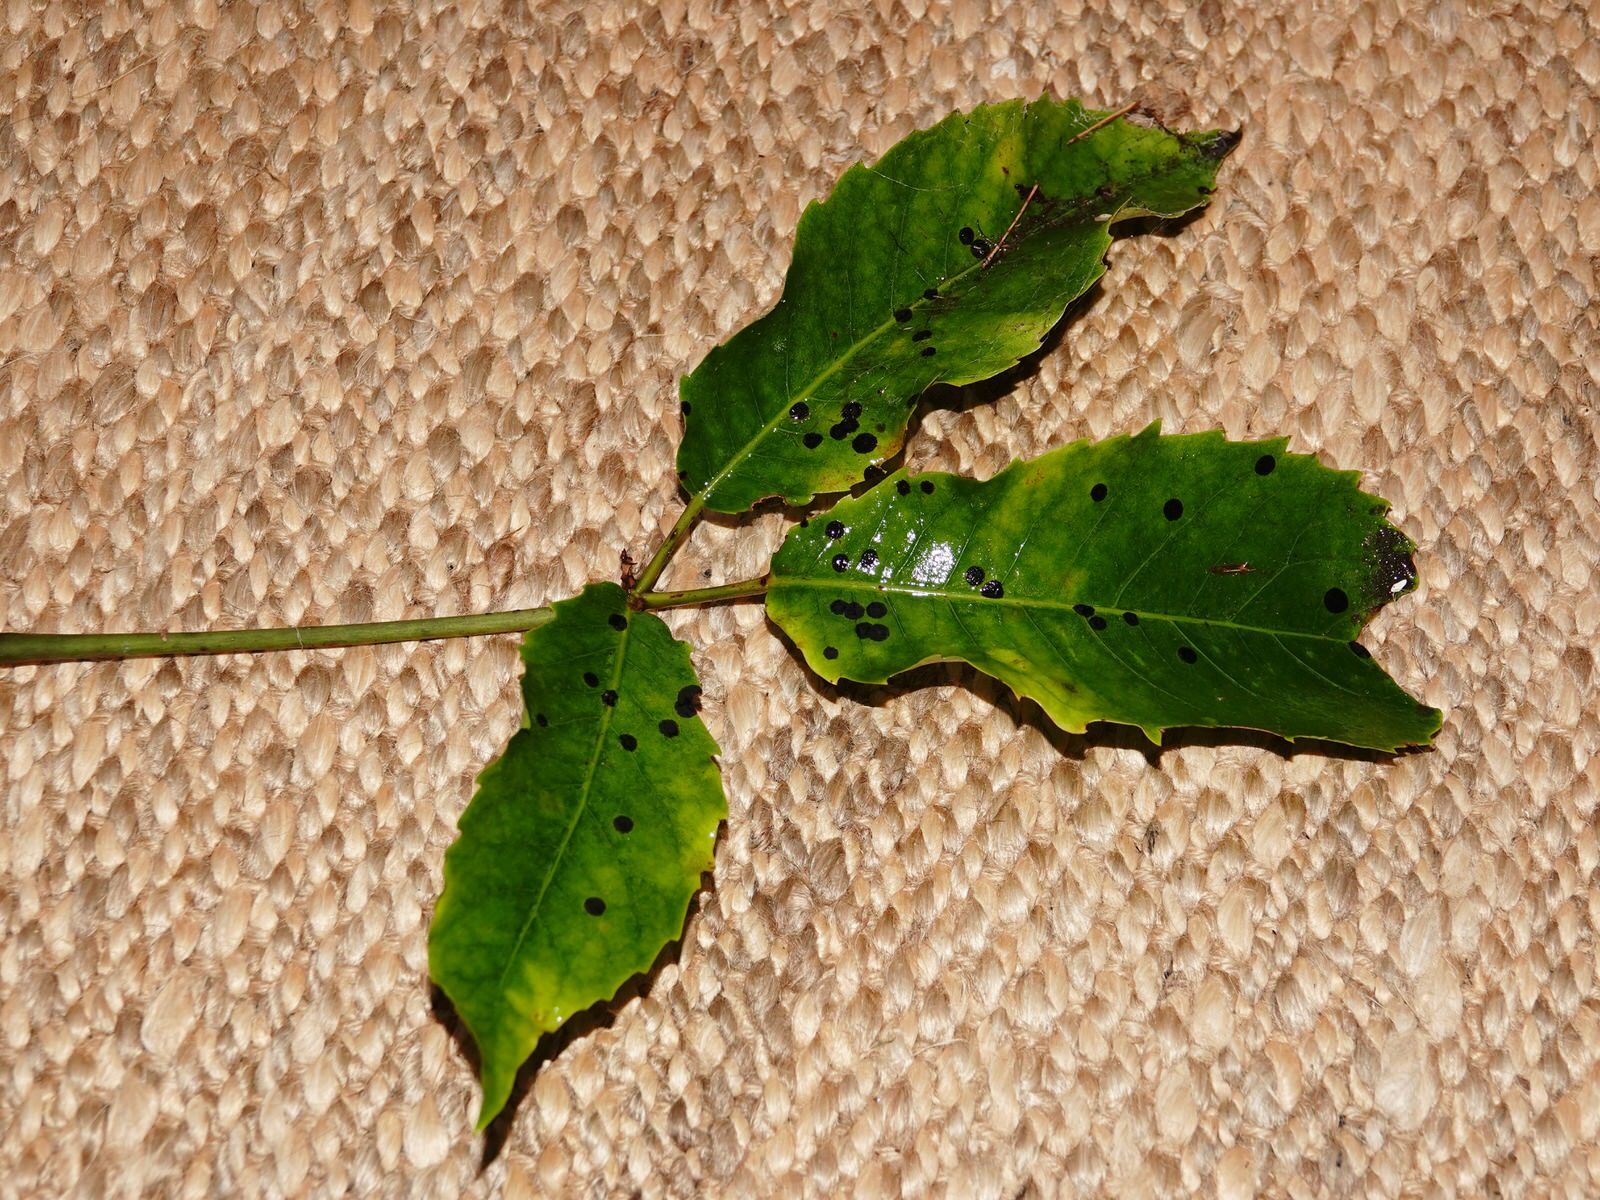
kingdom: Fungi
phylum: Ascomycota
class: Dothideomycetes
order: Asterinales
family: Asterinaceae
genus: Placosoma
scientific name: Placosoma nothopanacis
